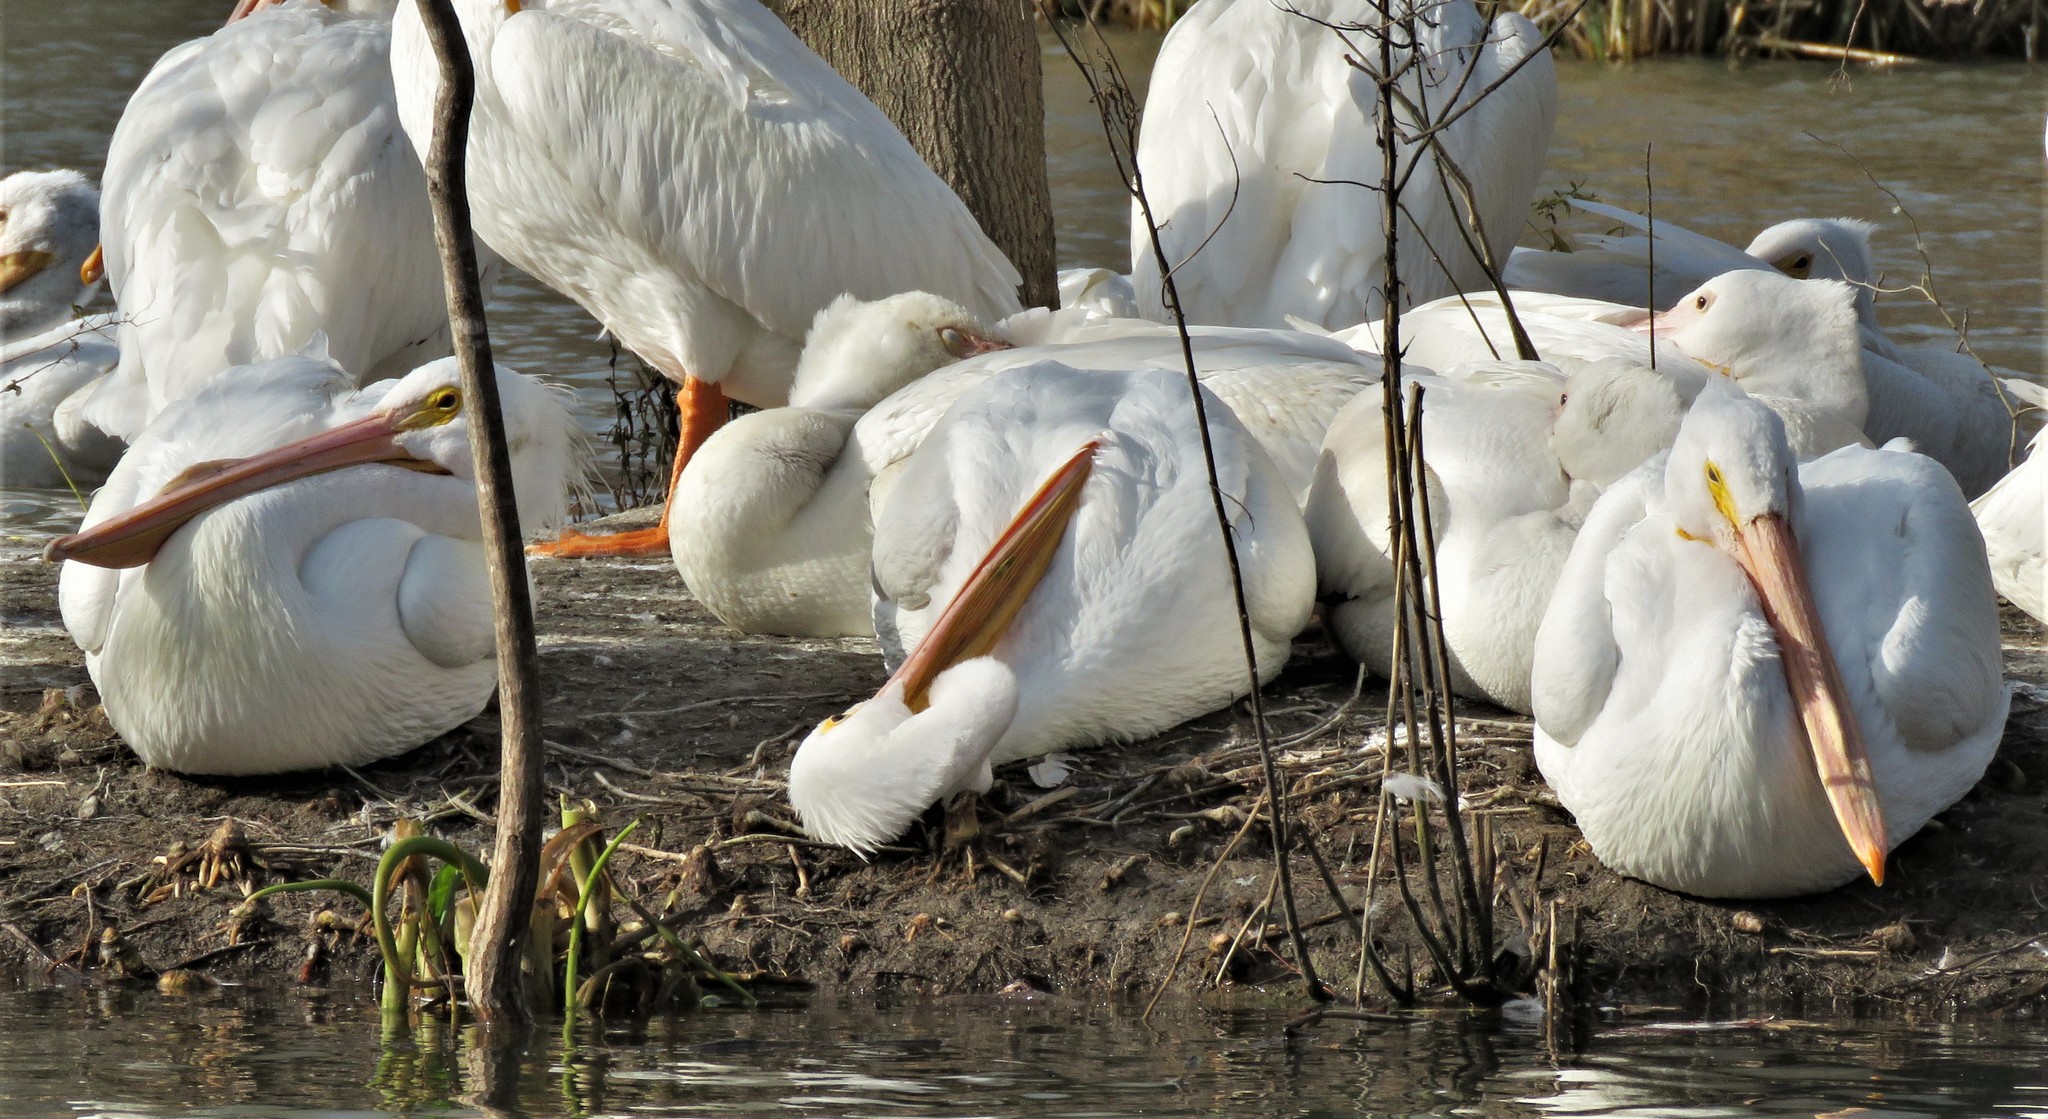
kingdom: Animalia
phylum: Chordata
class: Aves
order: Pelecaniformes
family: Pelecanidae
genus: Pelecanus
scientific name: Pelecanus erythrorhynchos
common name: American white pelican
